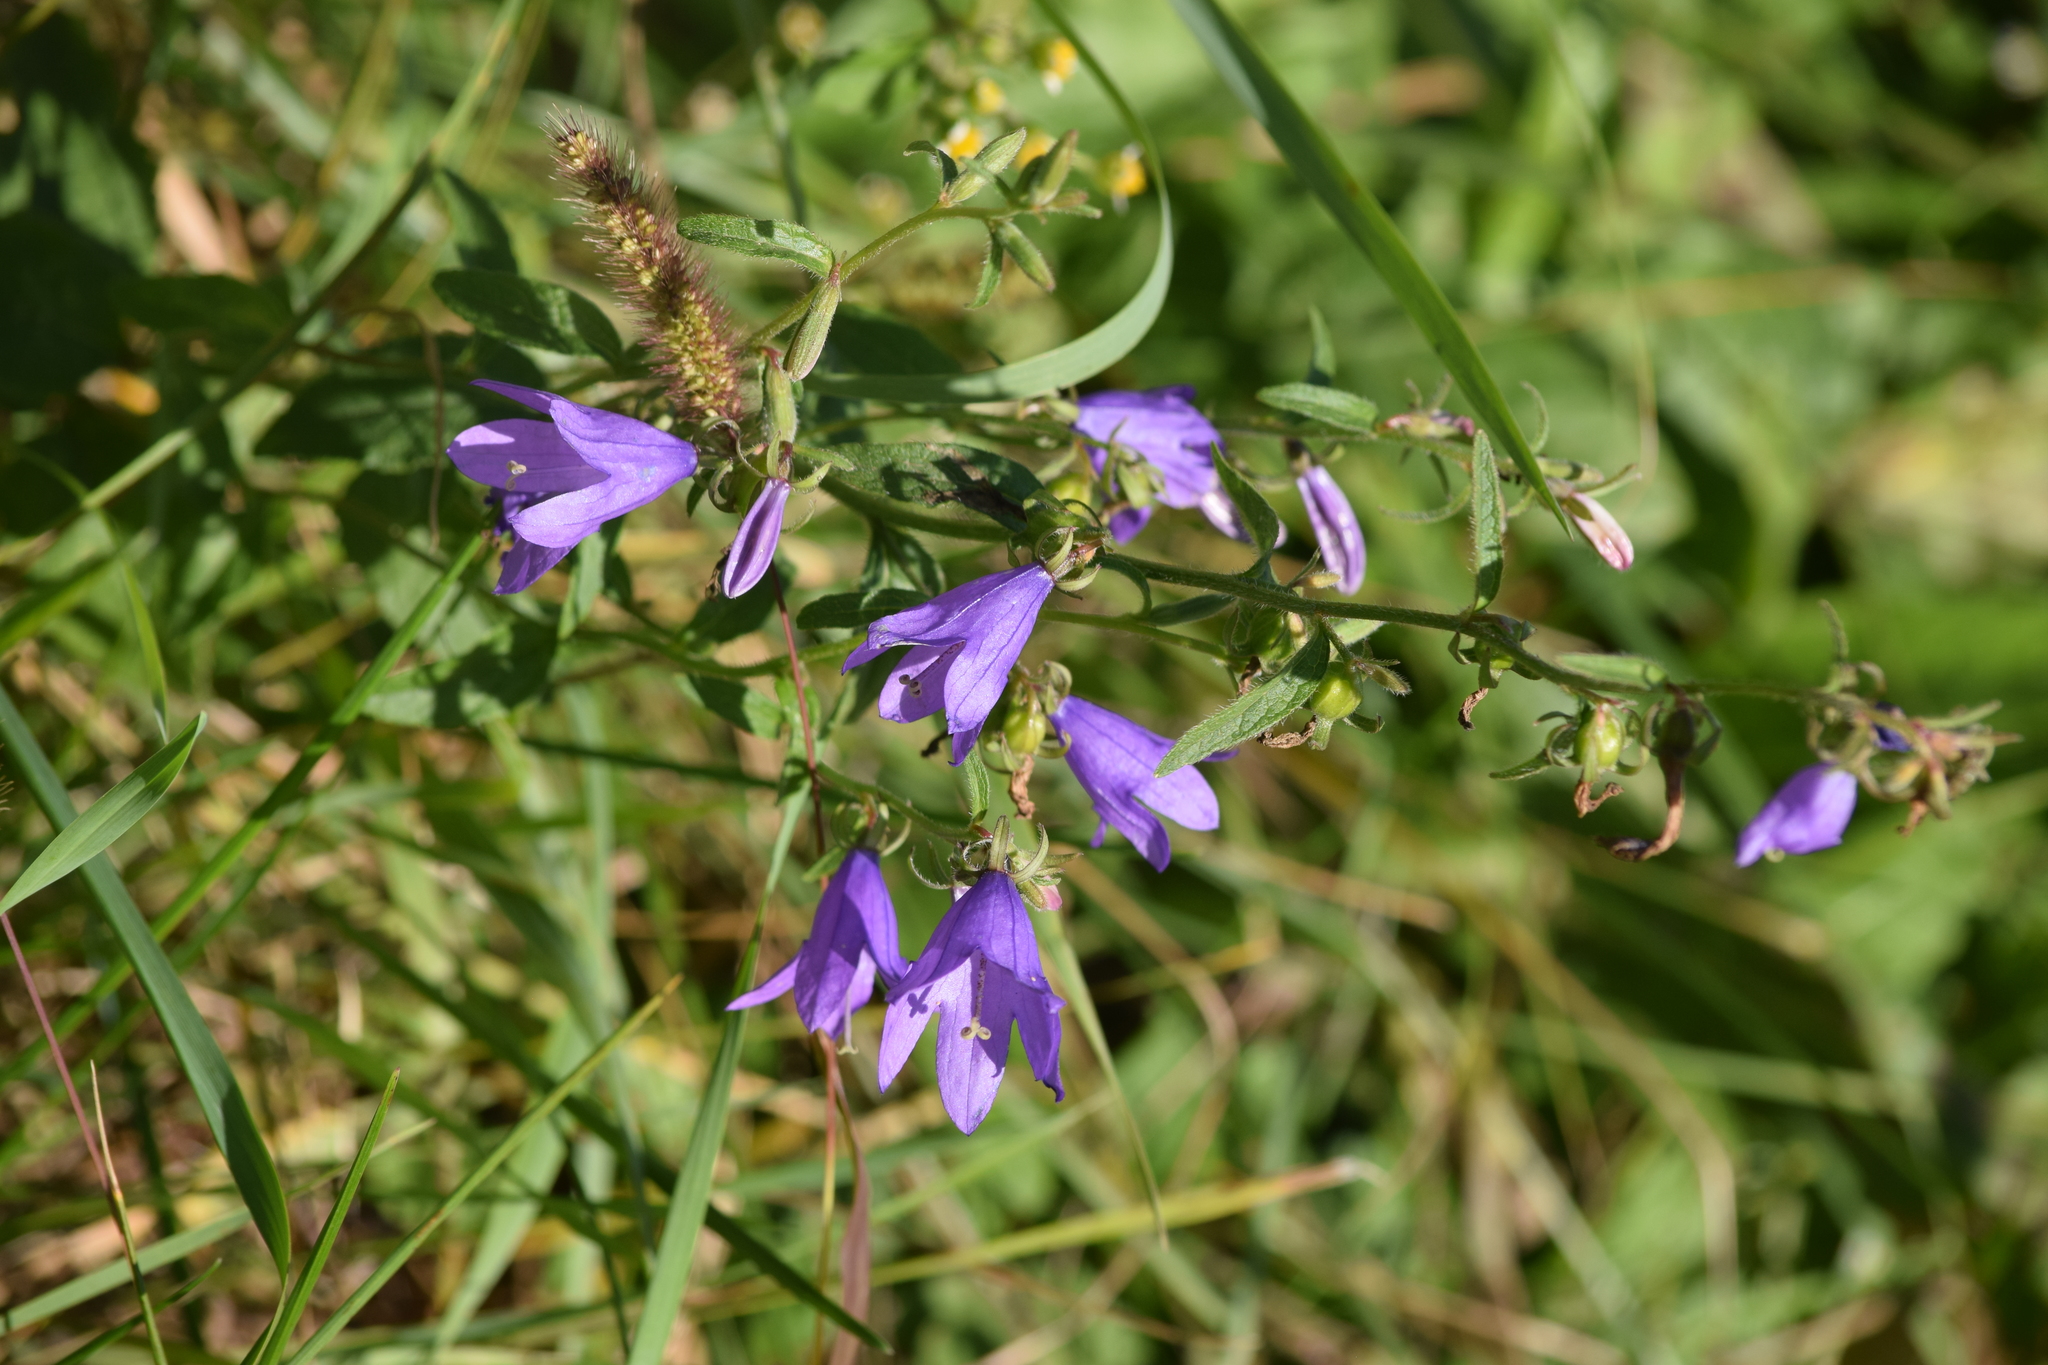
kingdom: Plantae
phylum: Tracheophyta
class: Magnoliopsida
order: Asterales
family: Campanulaceae
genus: Campanula
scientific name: Campanula rapunculoides
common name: Creeping bellflower
